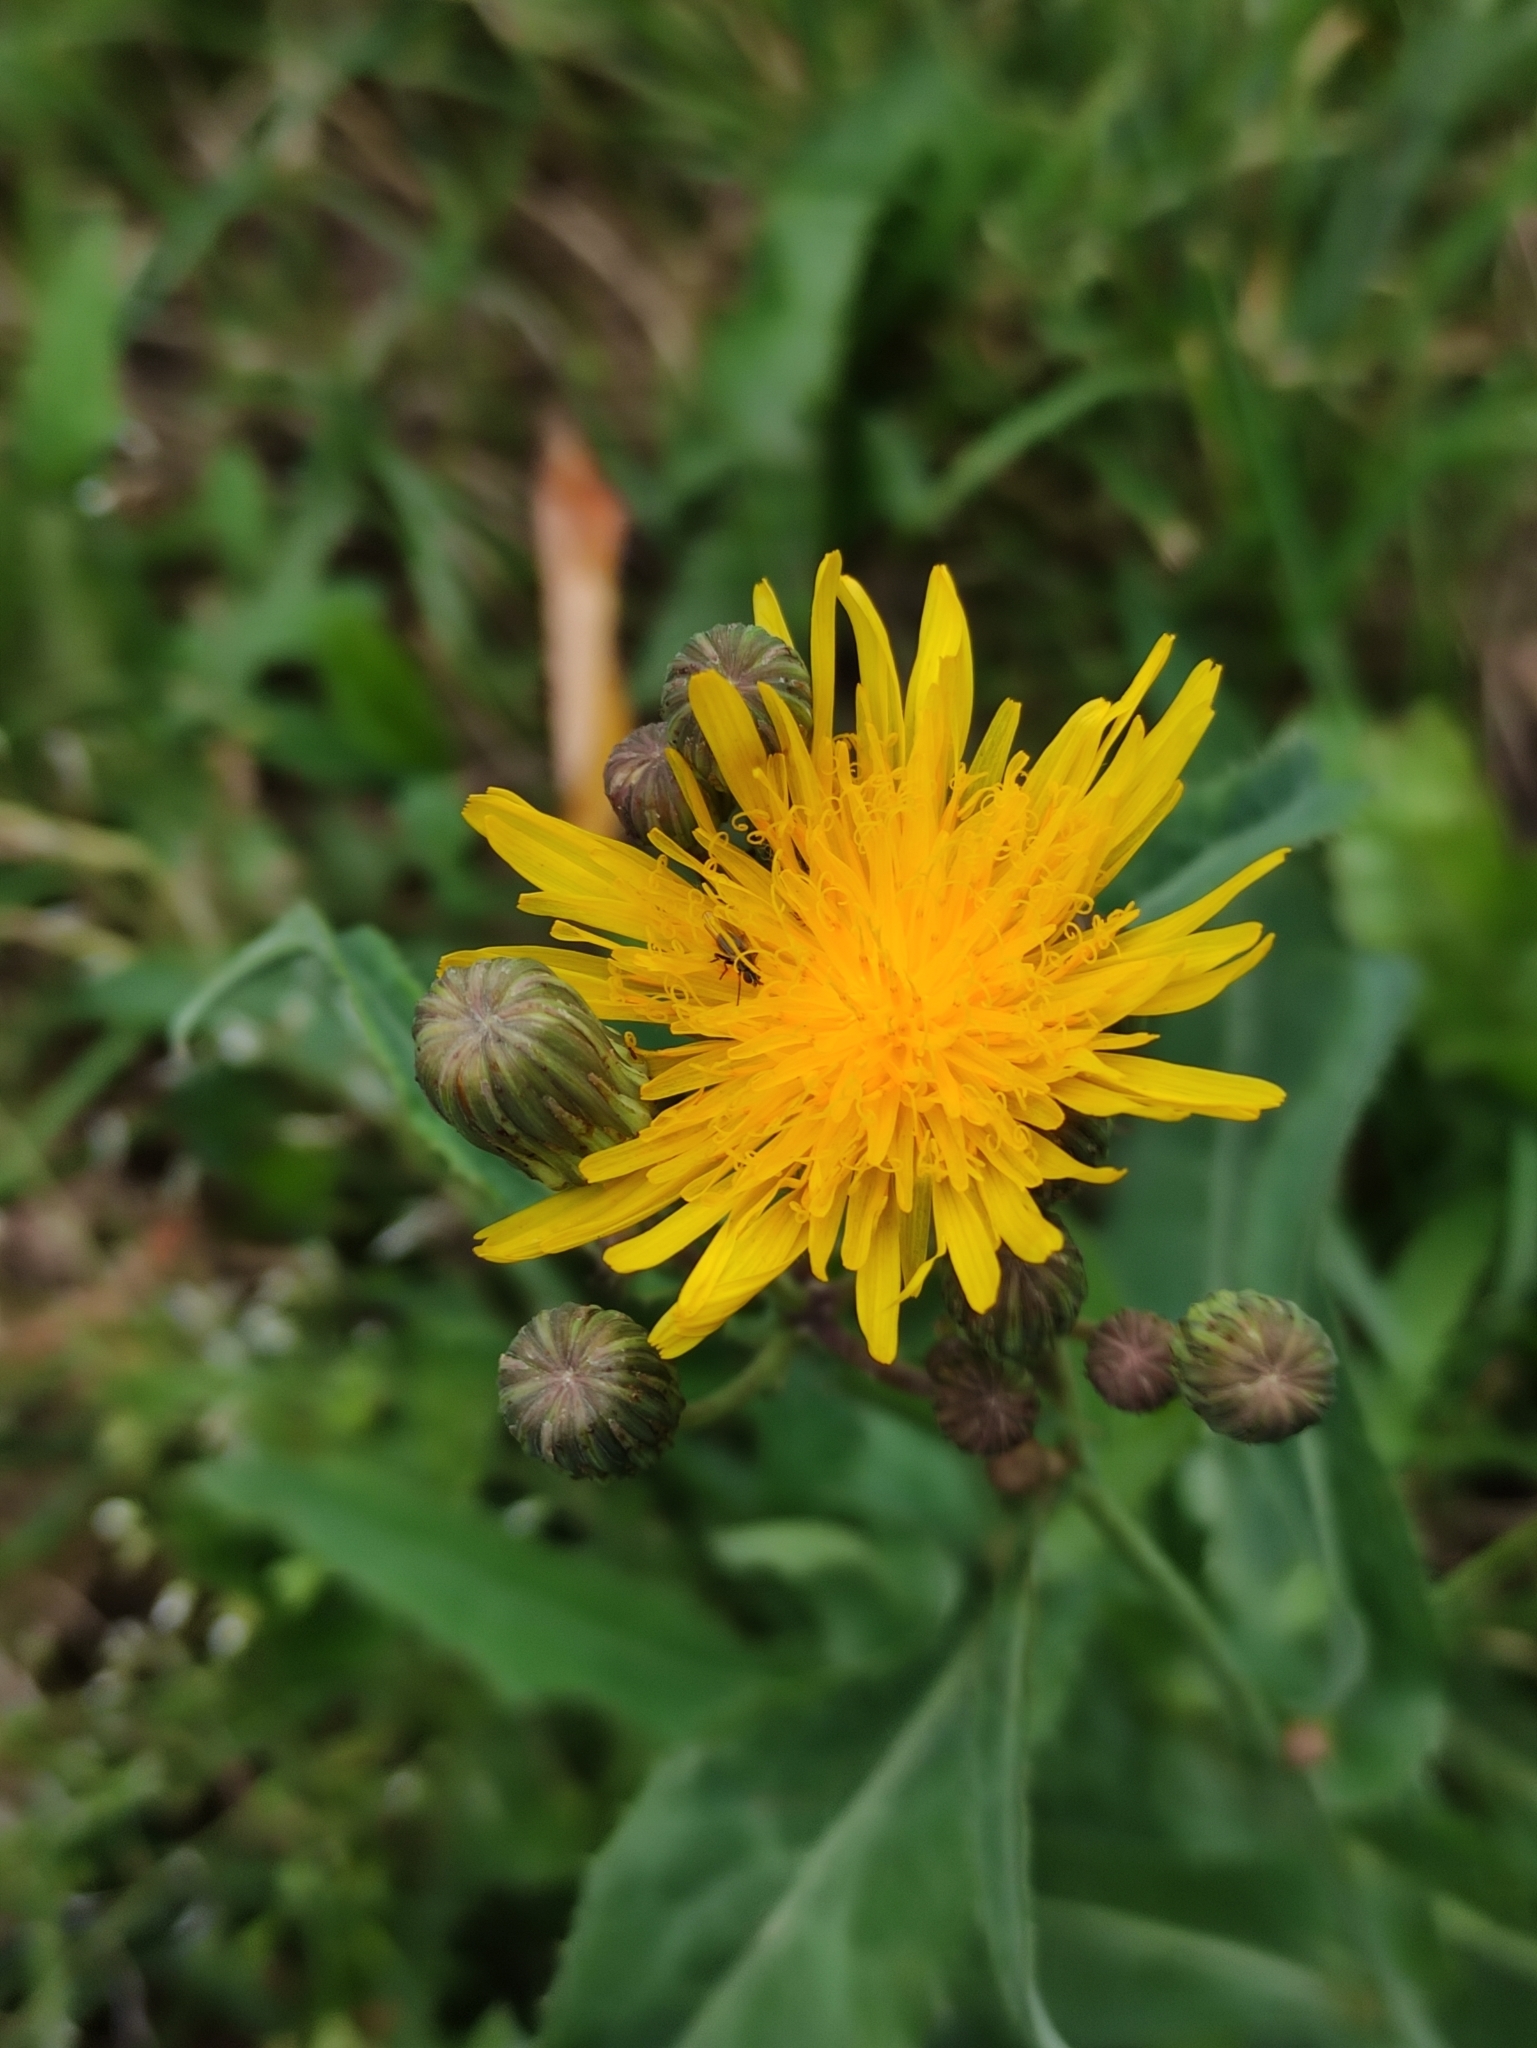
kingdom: Plantae
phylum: Tracheophyta
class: Magnoliopsida
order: Asterales
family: Asteraceae
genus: Sonchus
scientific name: Sonchus arvensis
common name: Perennial sow-thistle
